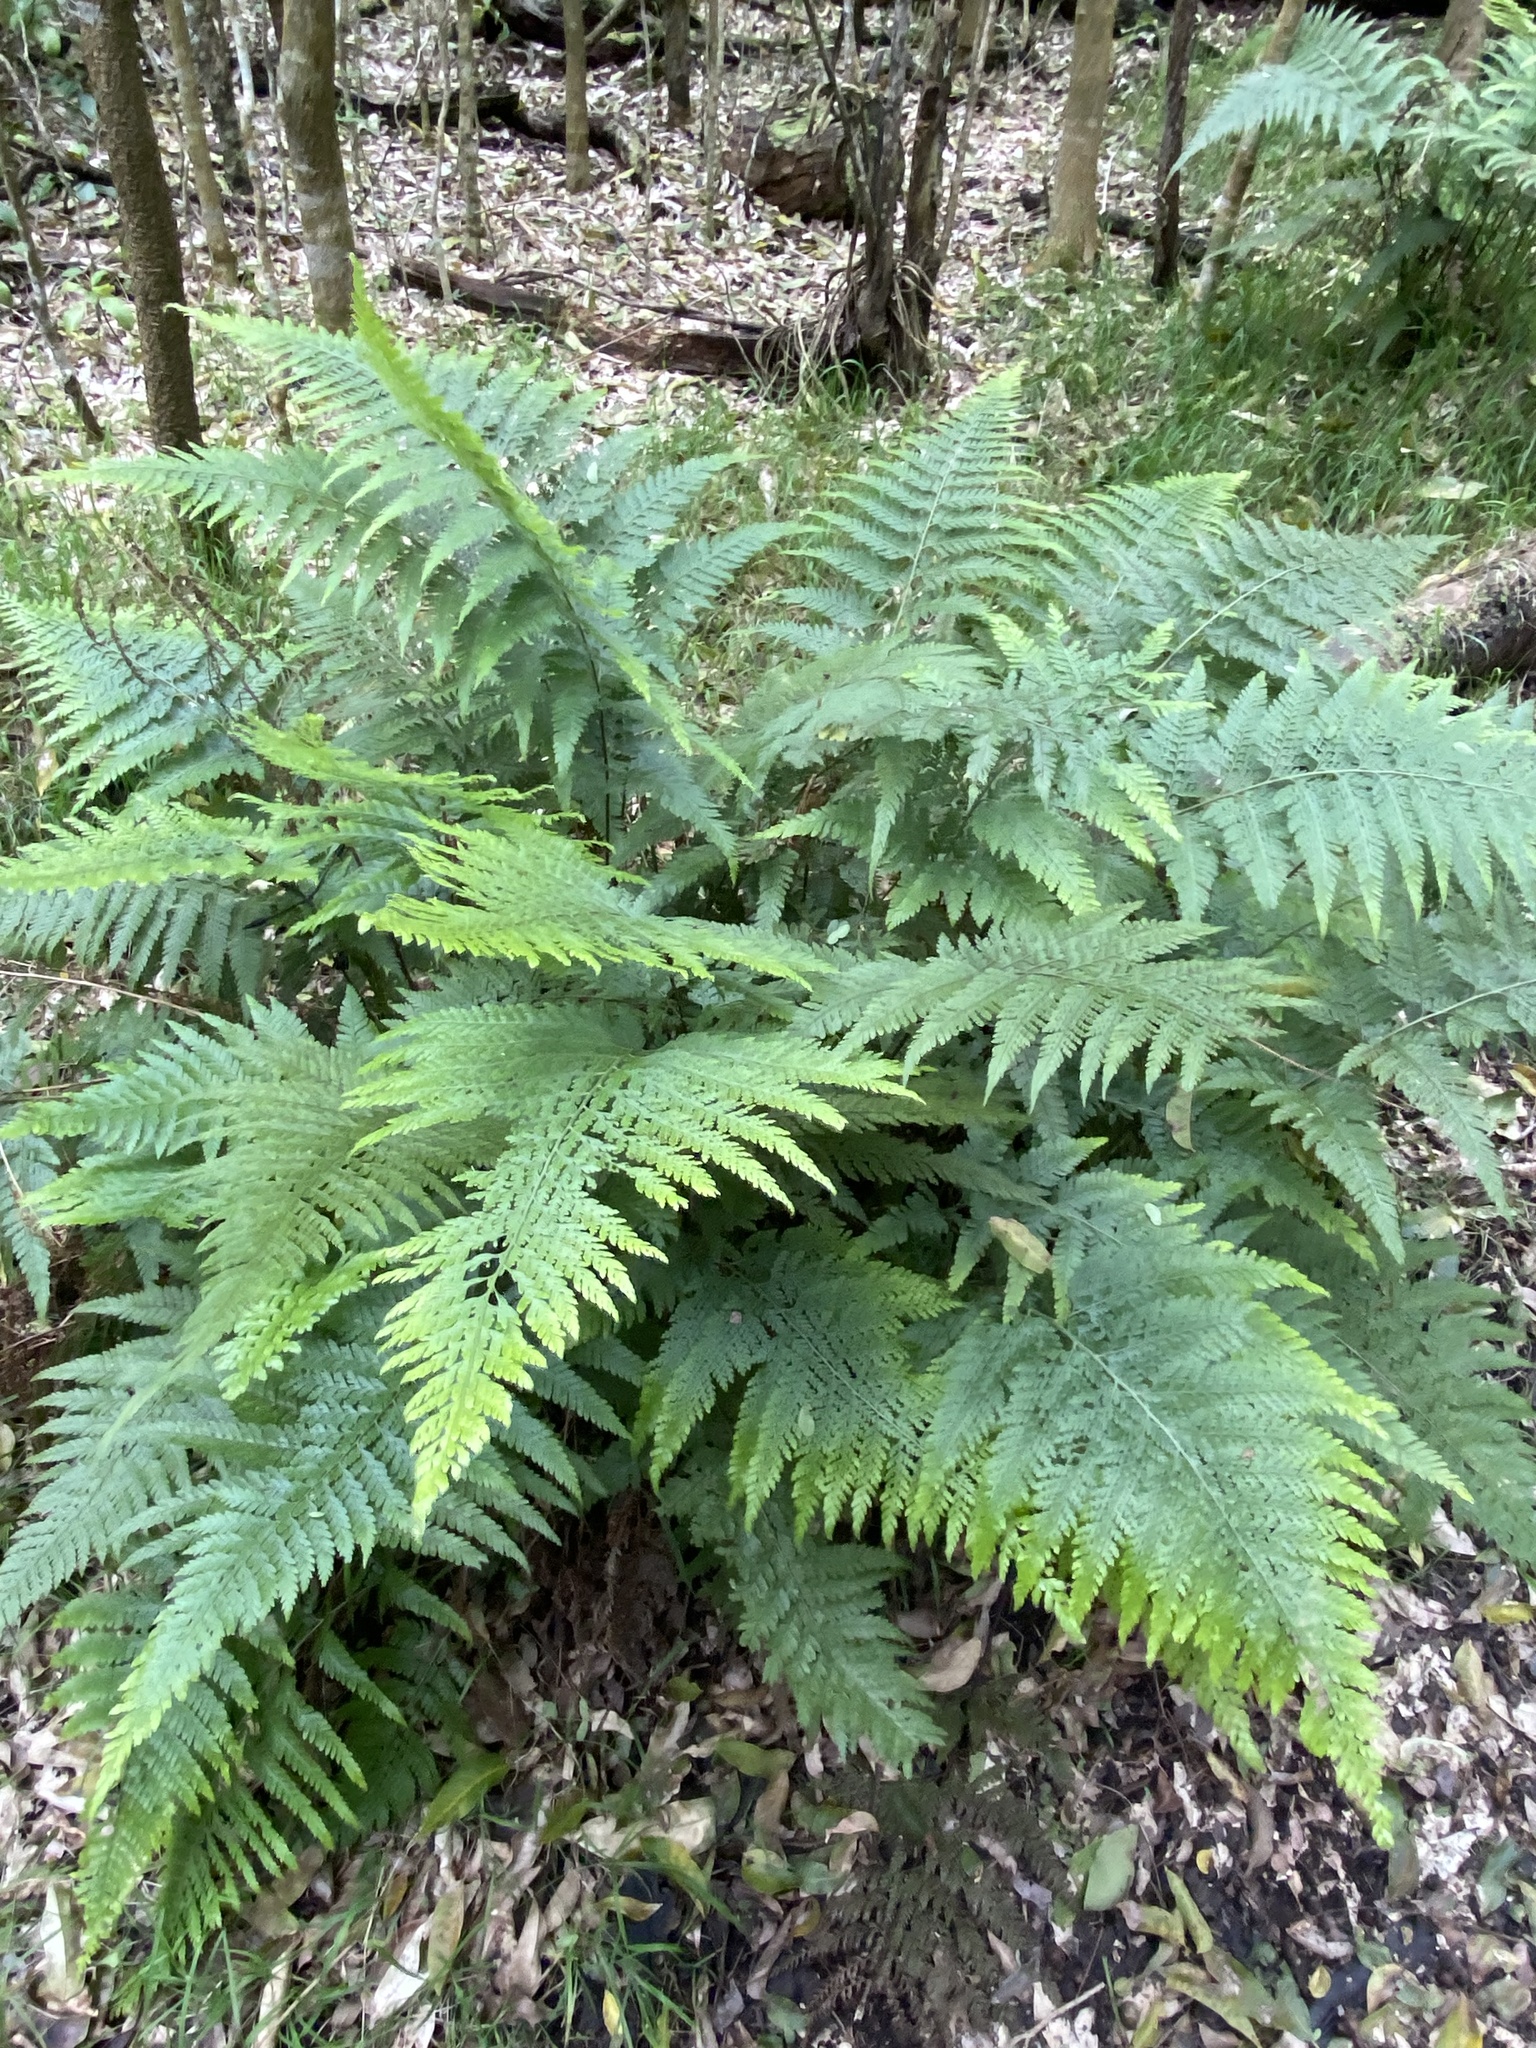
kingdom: Plantae
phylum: Tracheophyta
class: Polypodiopsida
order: Polypodiales
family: Dennstaedtiaceae
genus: Microlepia
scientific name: Microlepia setosa
